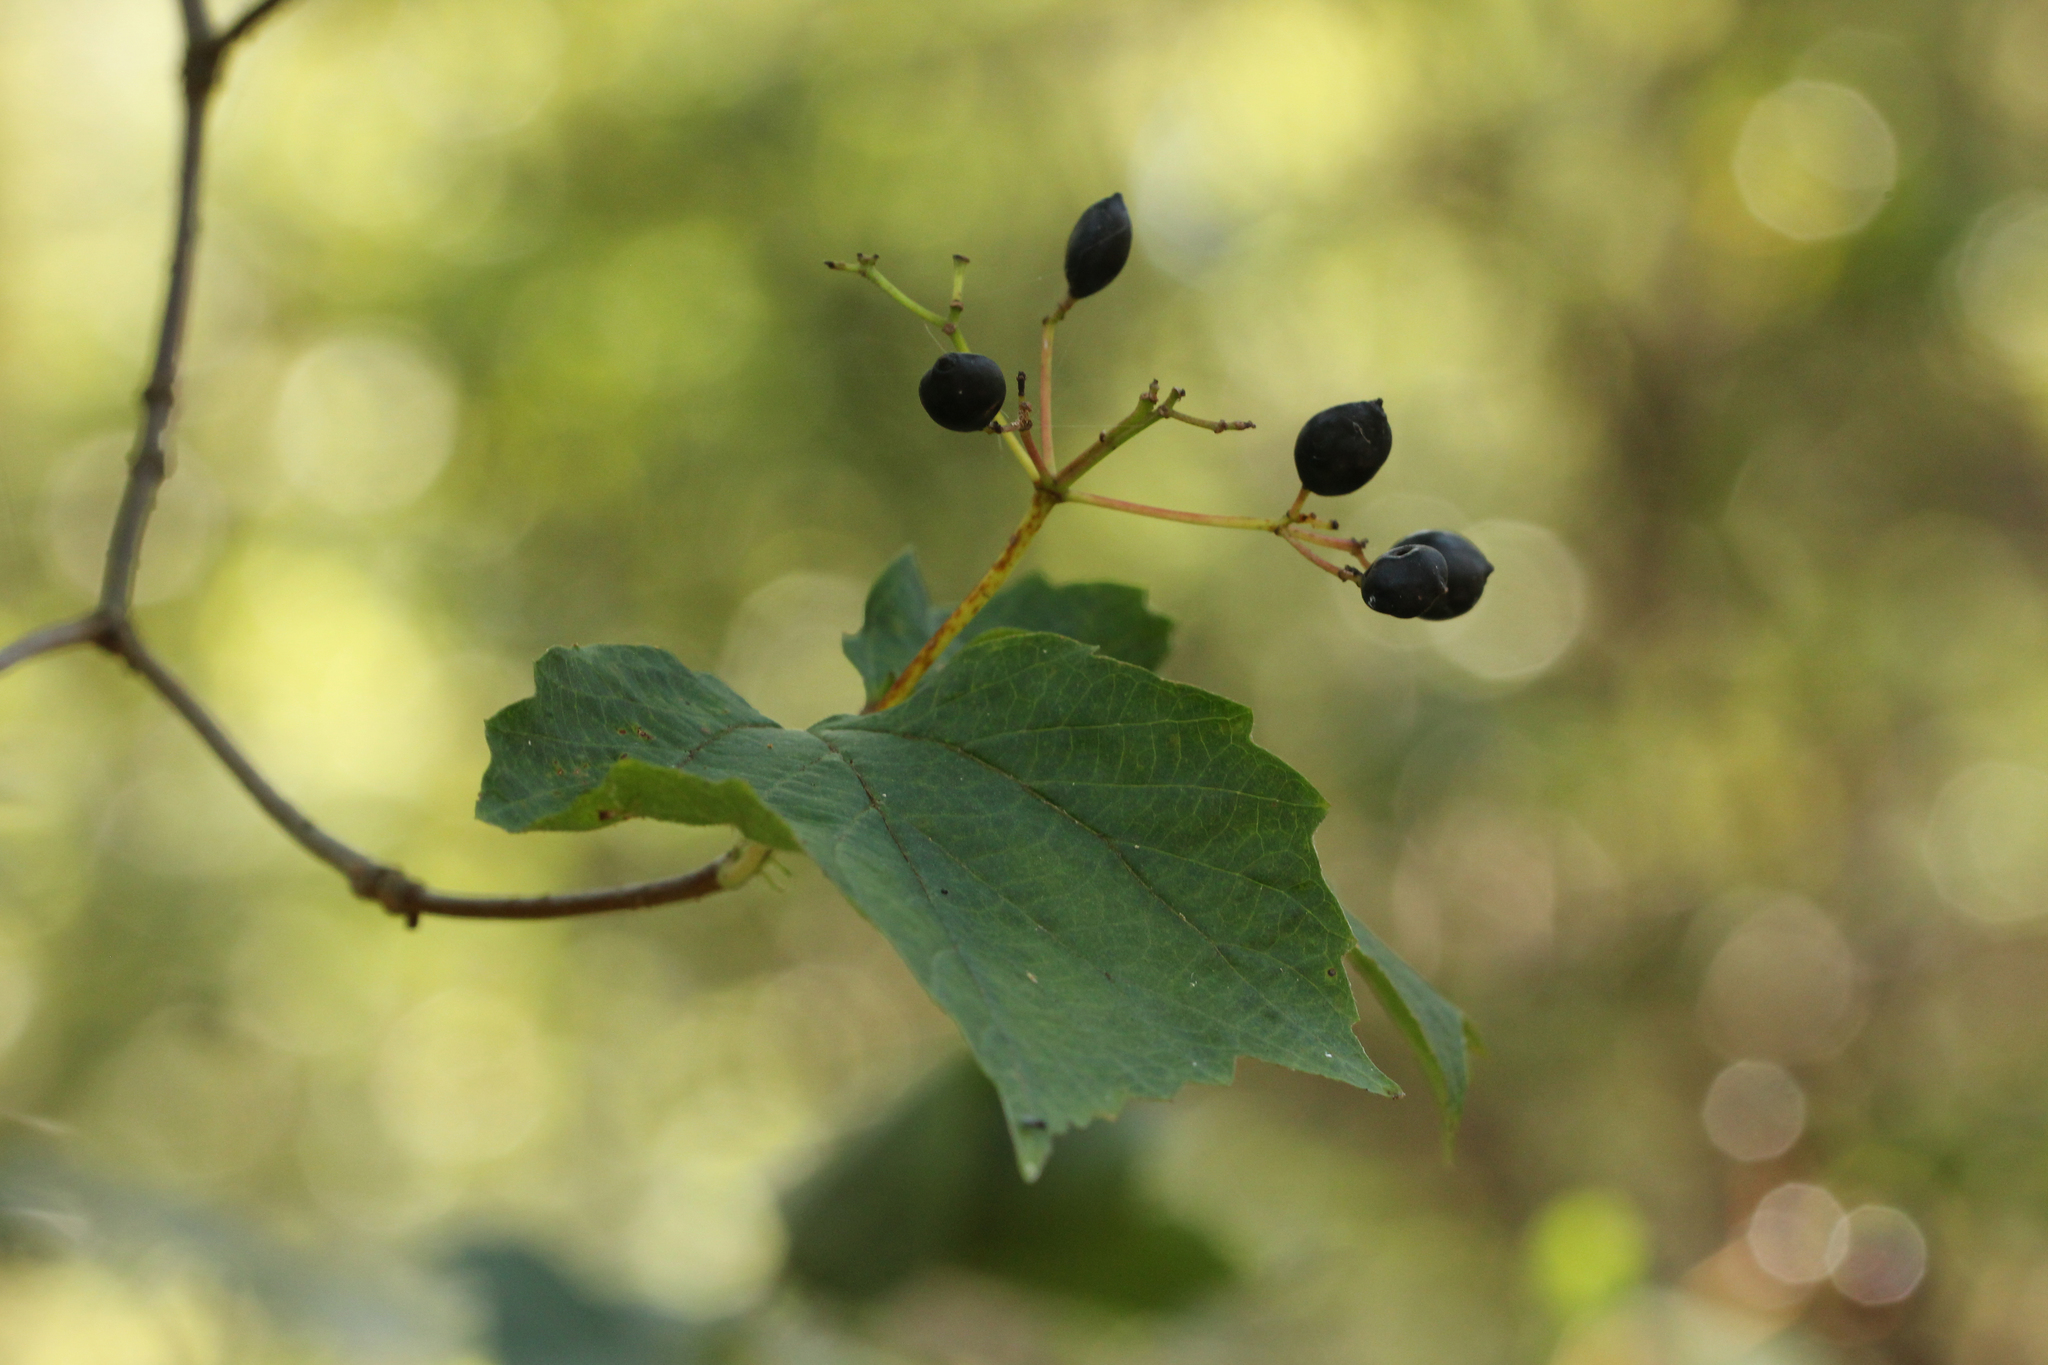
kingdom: Plantae
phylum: Tracheophyta
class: Magnoliopsida
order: Dipsacales
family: Viburnaceae
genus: Viburnum
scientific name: Viburnum acerifolium
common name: Dockmackie
